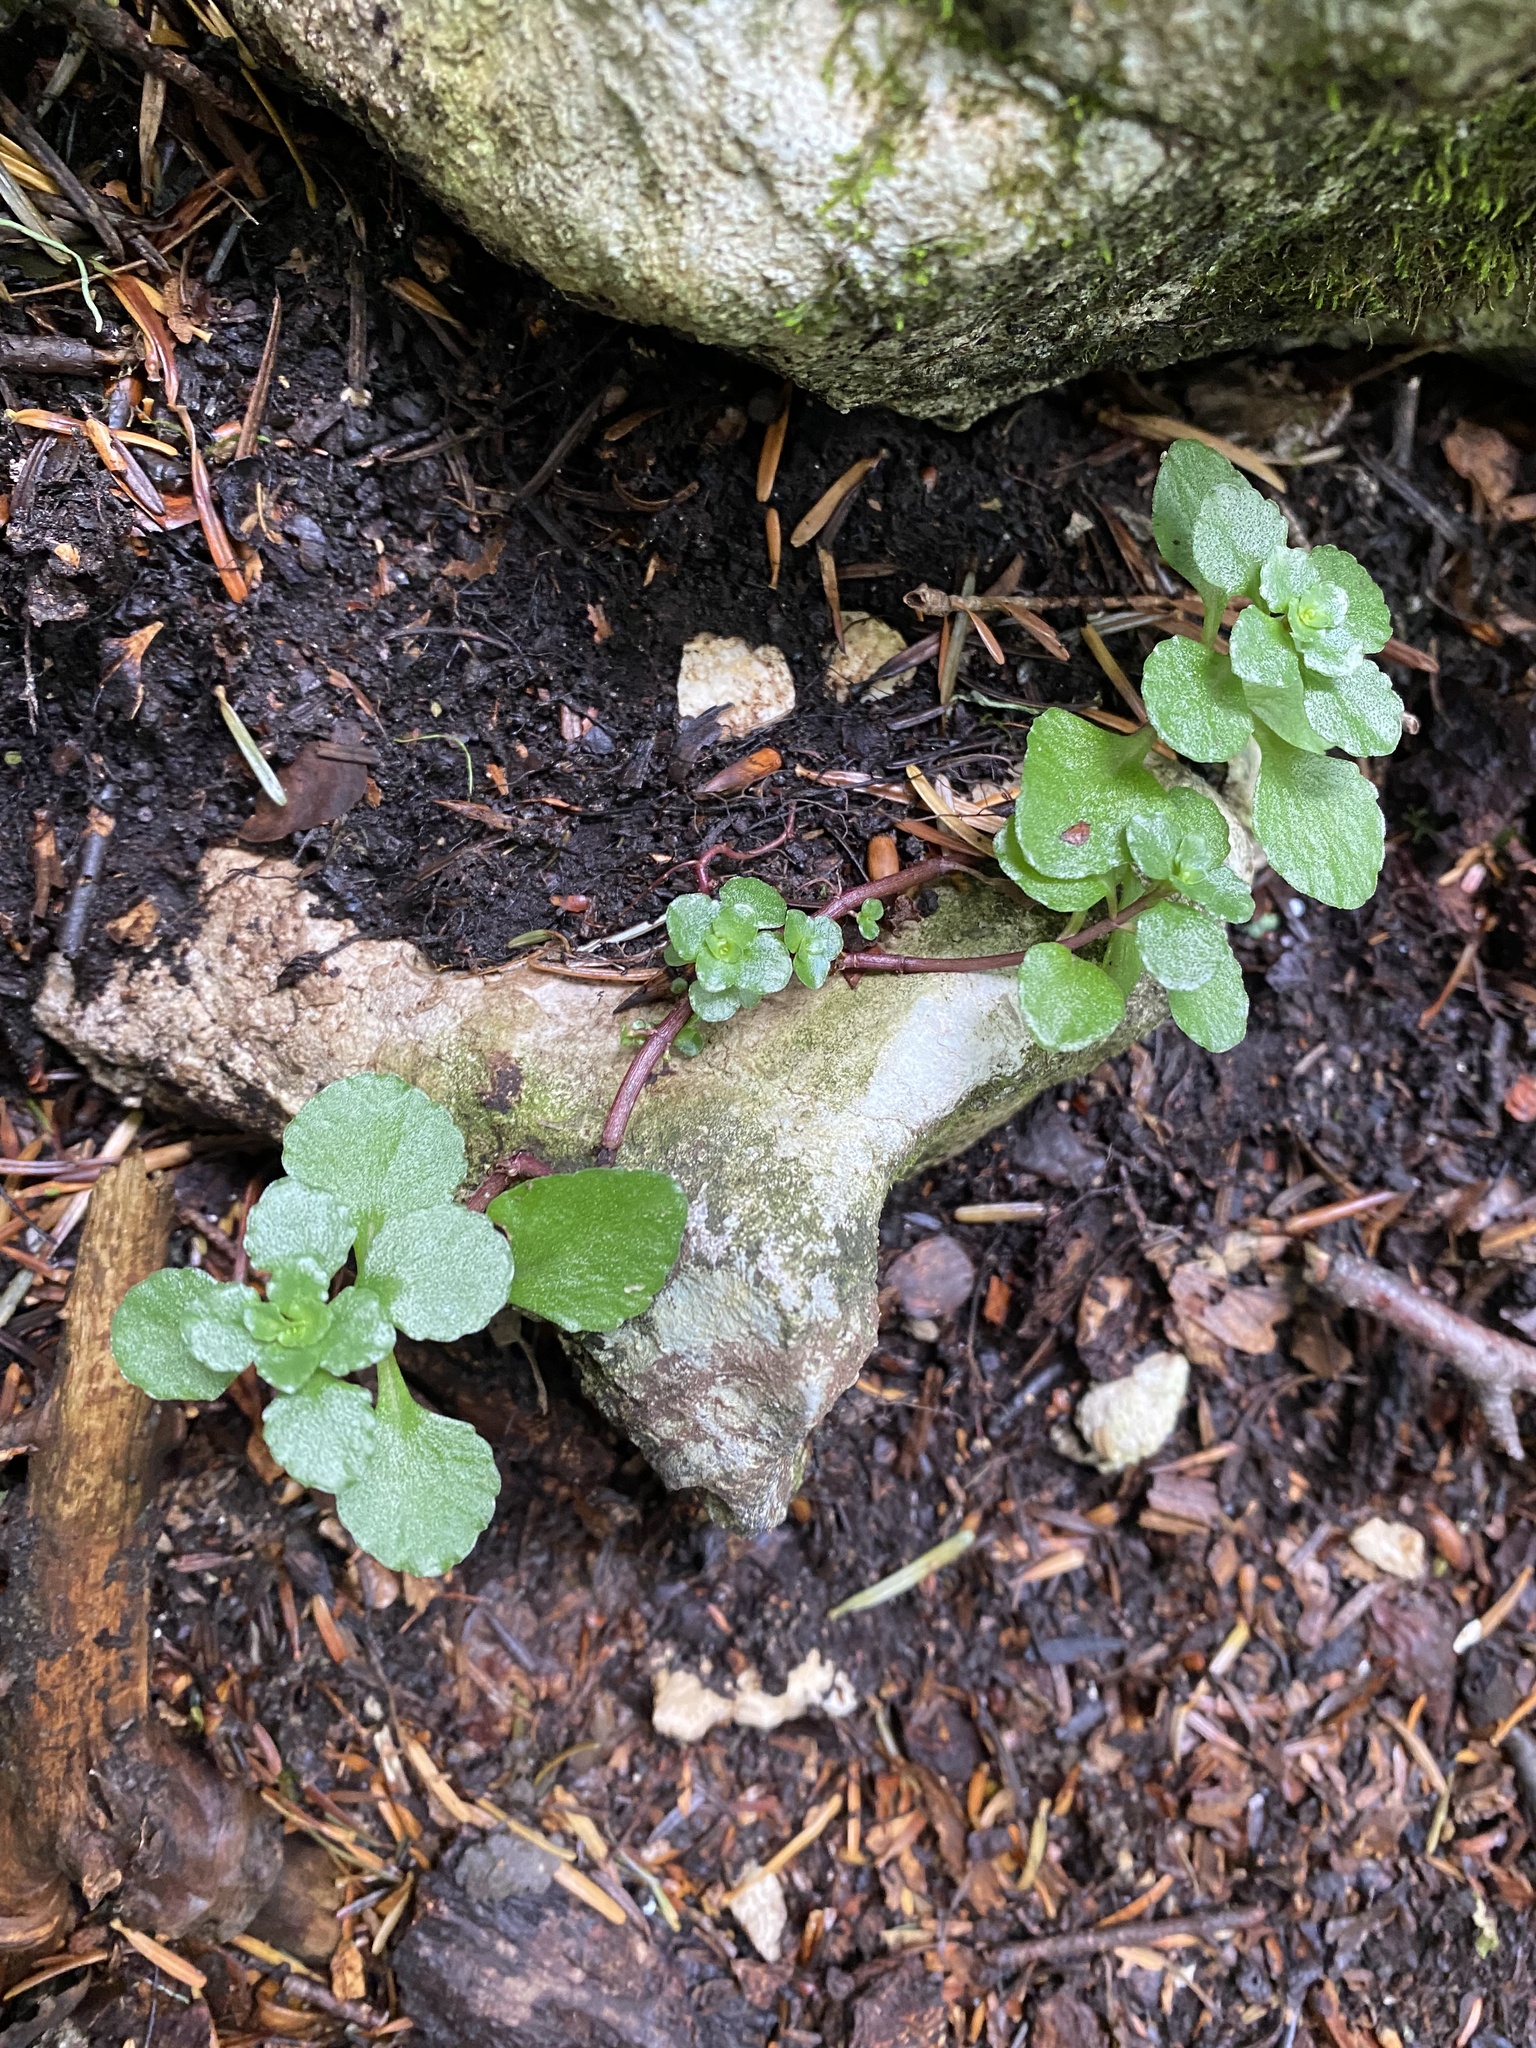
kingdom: Plantae
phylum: Tracheophyta
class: Magnoliopsida
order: Saxifragales
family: Crassulaceae
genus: Phedimus
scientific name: Phedimus stolonifer
